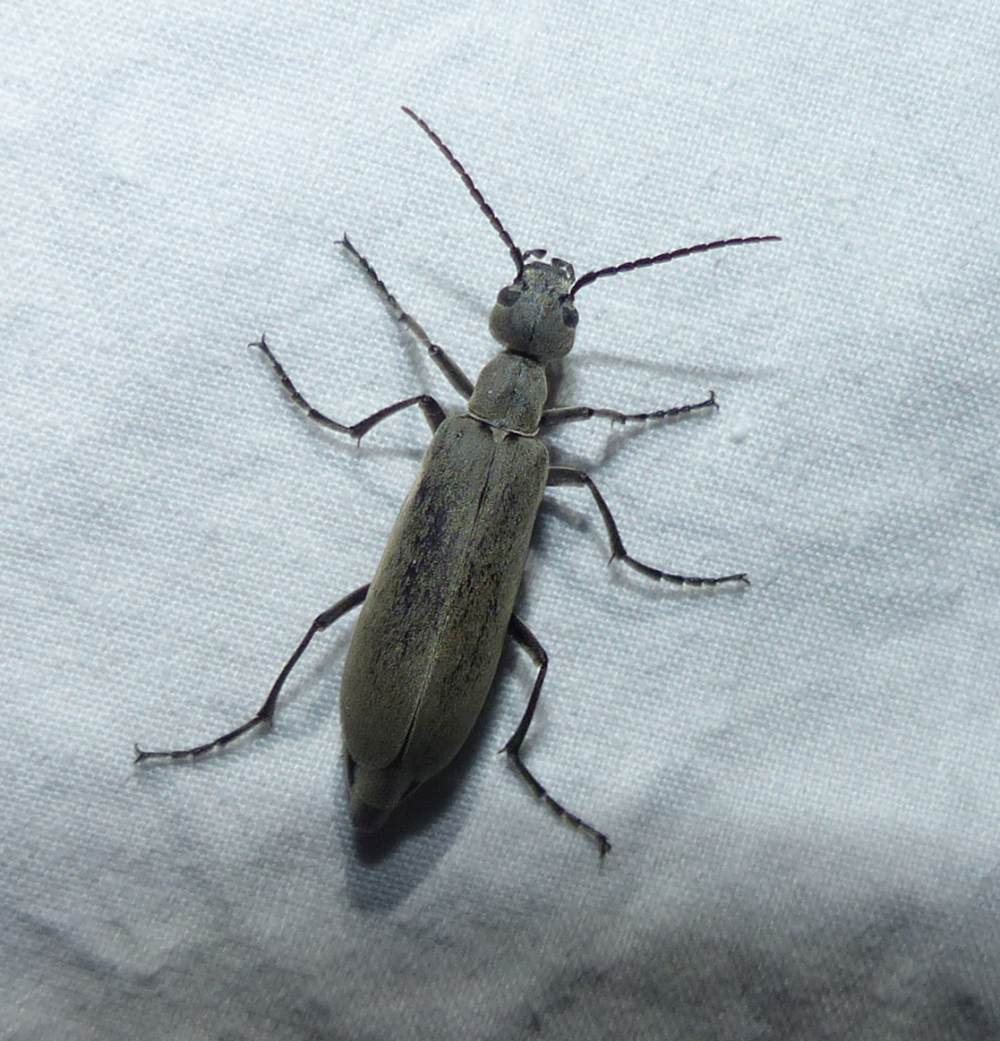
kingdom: Animalia
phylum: Arthropoda
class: Insecta
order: Coleoptera
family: Meloidae
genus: Epicauta
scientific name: Epicauta fabricii
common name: Ashgray blister beetle
